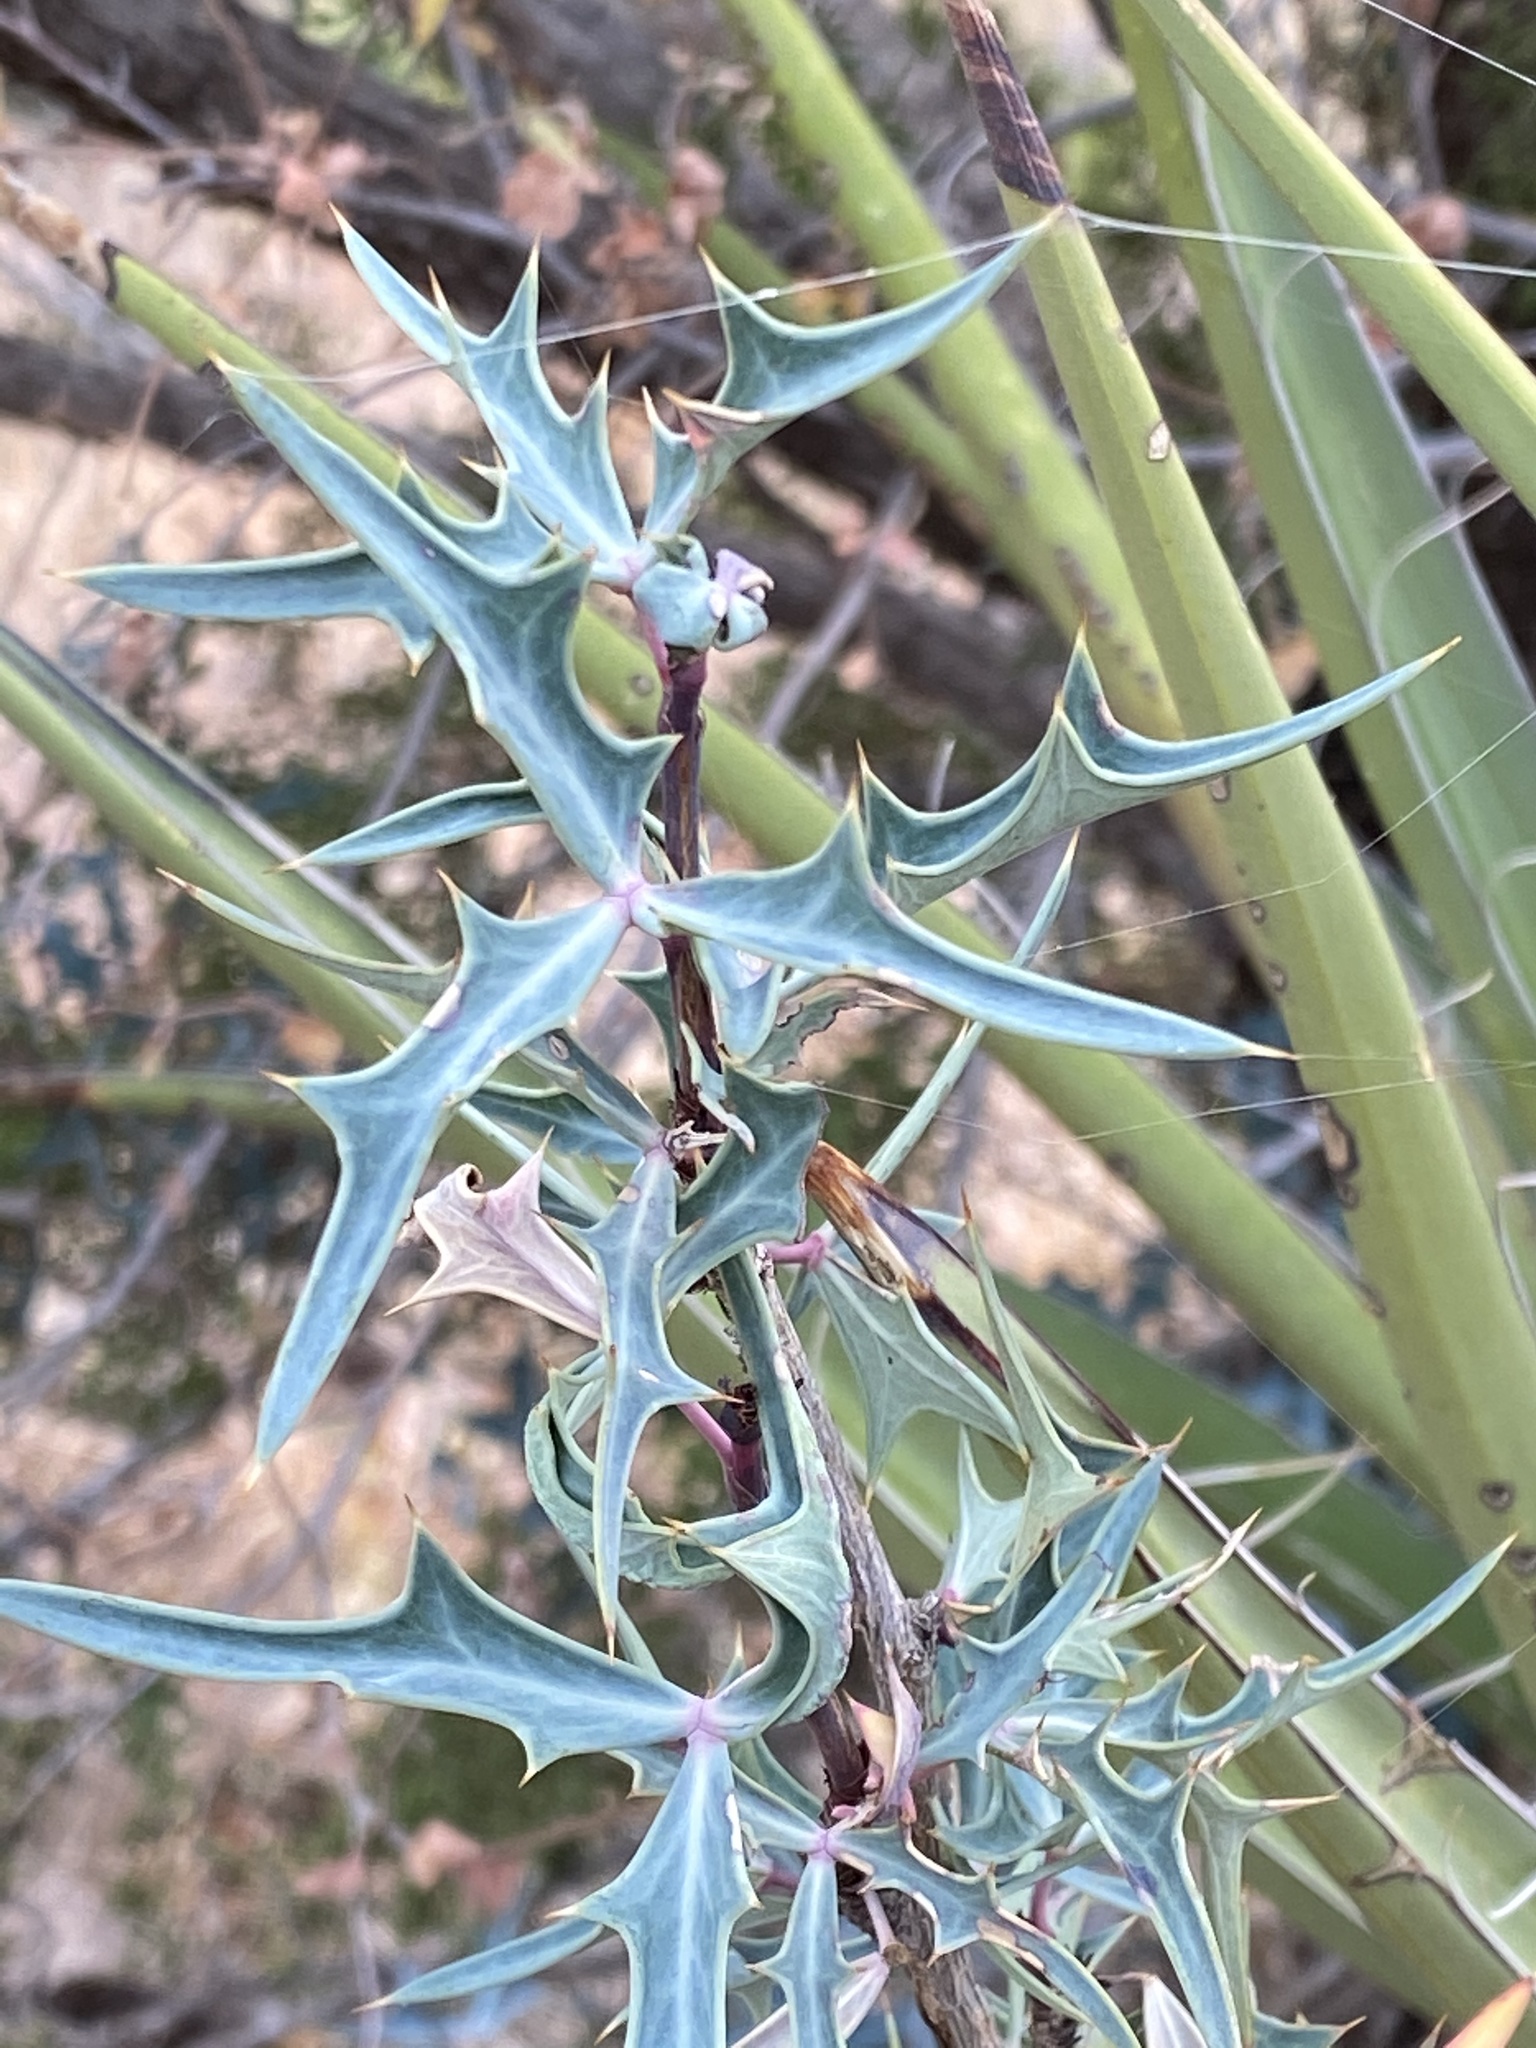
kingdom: Plantae
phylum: Tracheophyta
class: Magnoliopsida
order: Ranunculales
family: Berberidaceae
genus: Alloberberis
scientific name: Alloberberis trifoliolata
